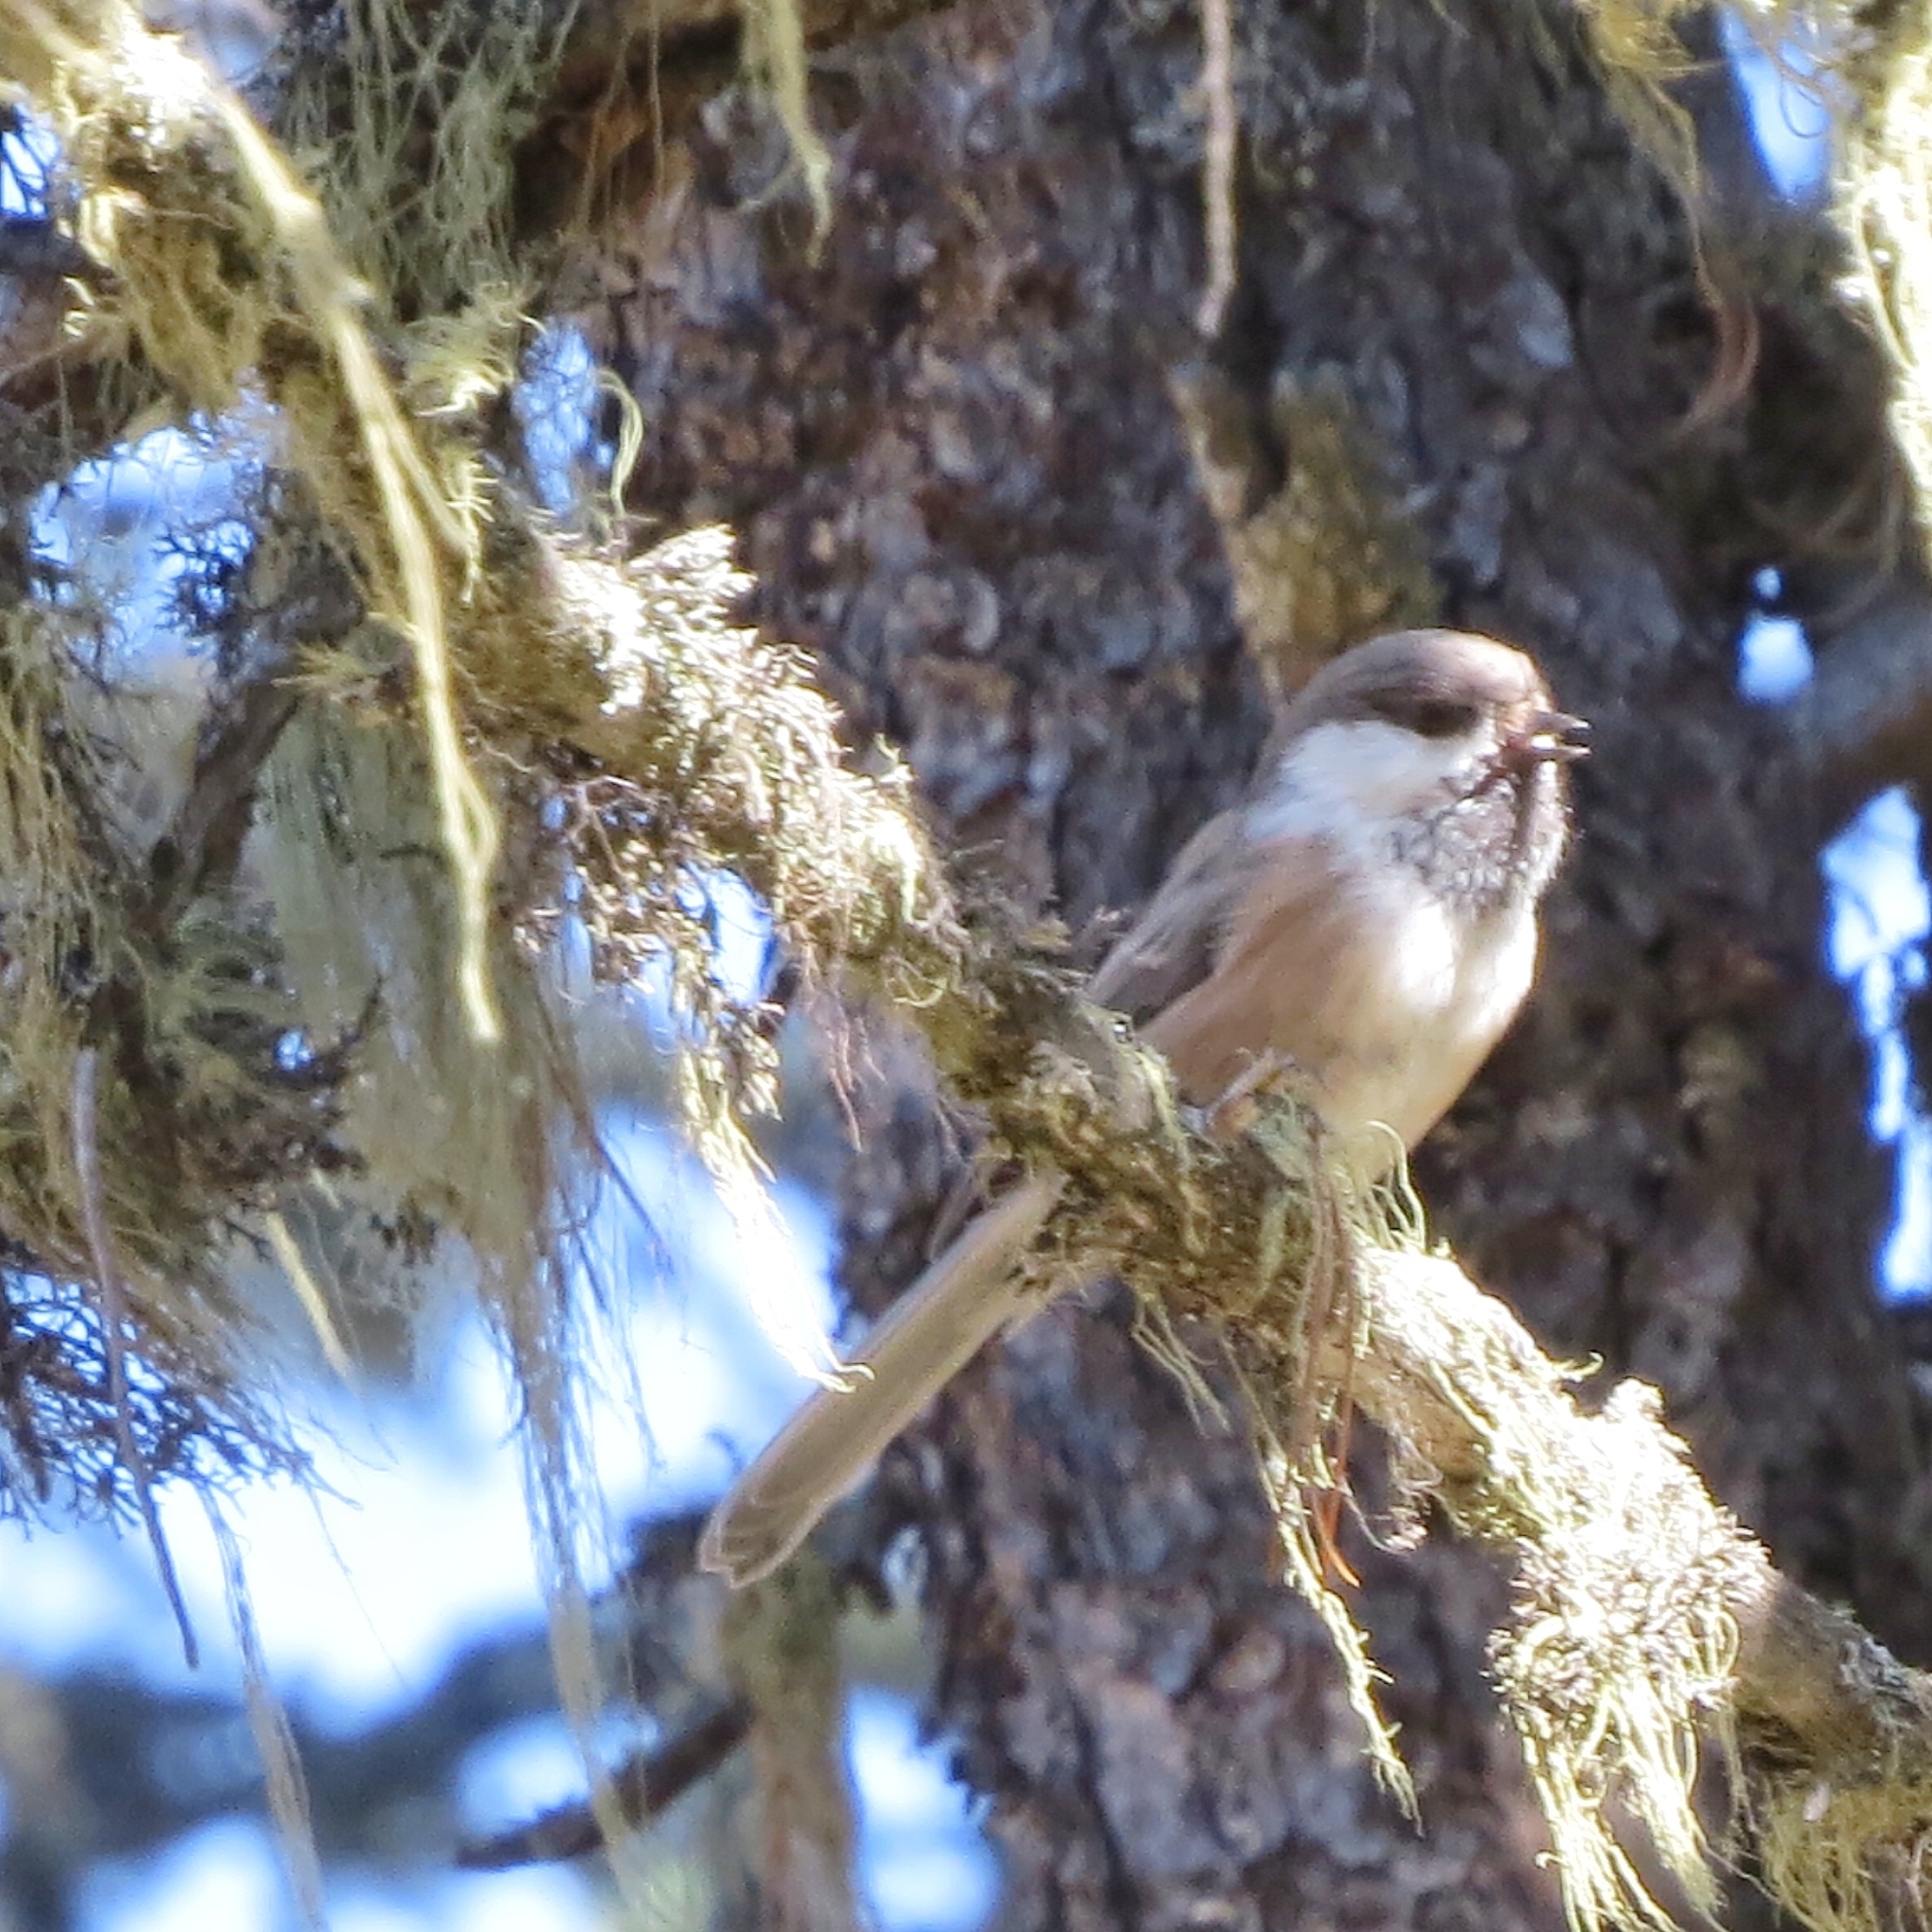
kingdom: Animalia
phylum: Chordata
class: Aves
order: Passeriformes
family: Paridae
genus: Poecile
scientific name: Poecile cinctus
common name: Gray-headed chickadee
